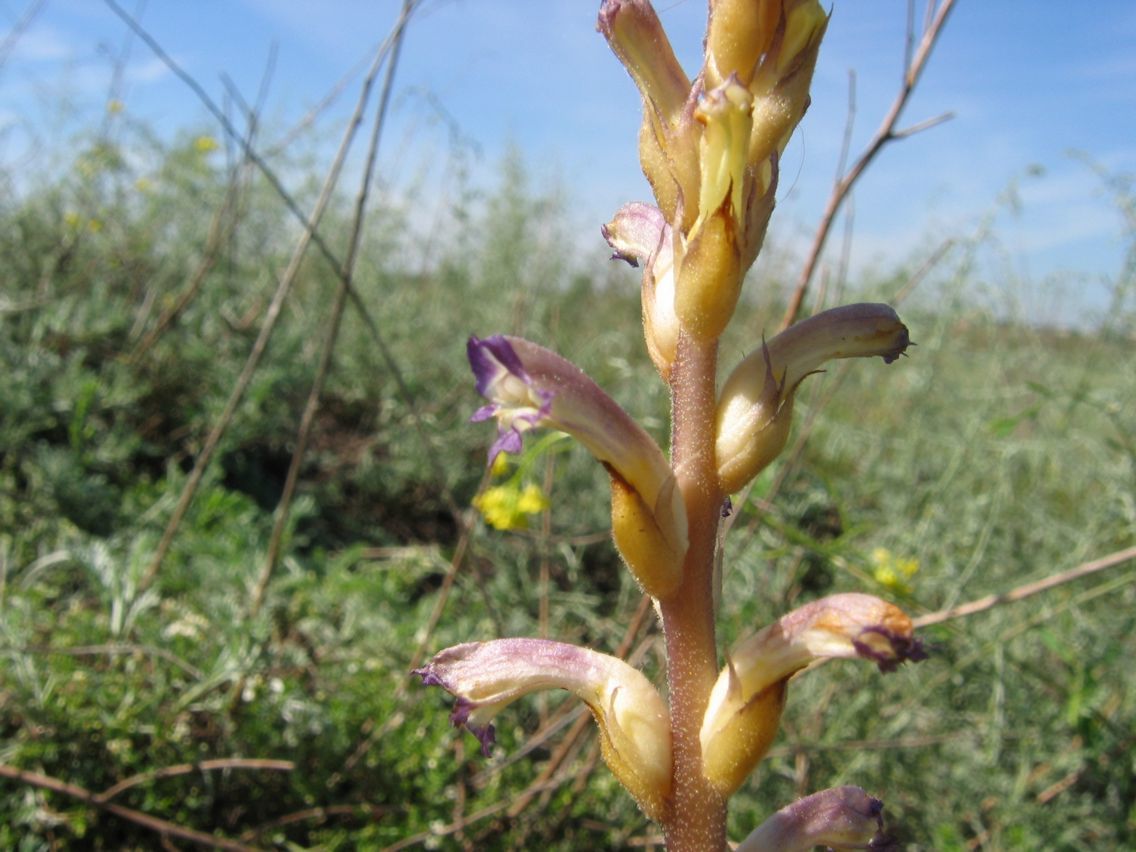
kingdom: Plantae
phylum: Tracheophyta
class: Magnoliopsida
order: Lamiales
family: Orobanchaceae
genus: Orobanche
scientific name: Orobanche grenieri
